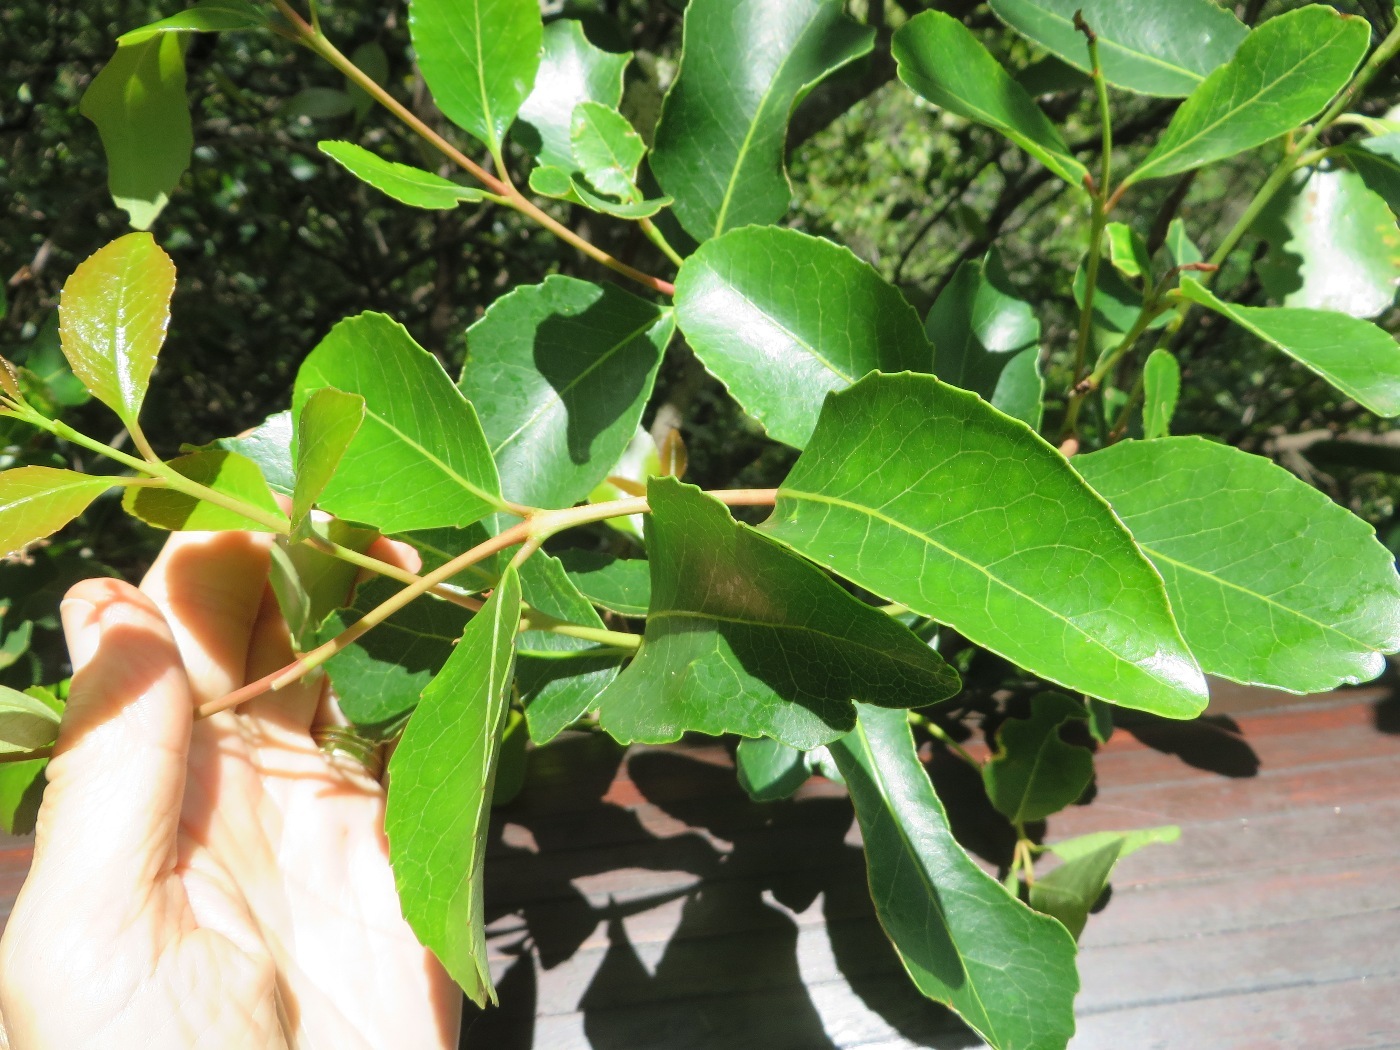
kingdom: Plantae
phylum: Tracheophyta
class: Magnoliopsida
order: Celastrales
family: Celastraceae
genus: Cassine
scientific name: Cassine peragua
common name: Cape saffron
